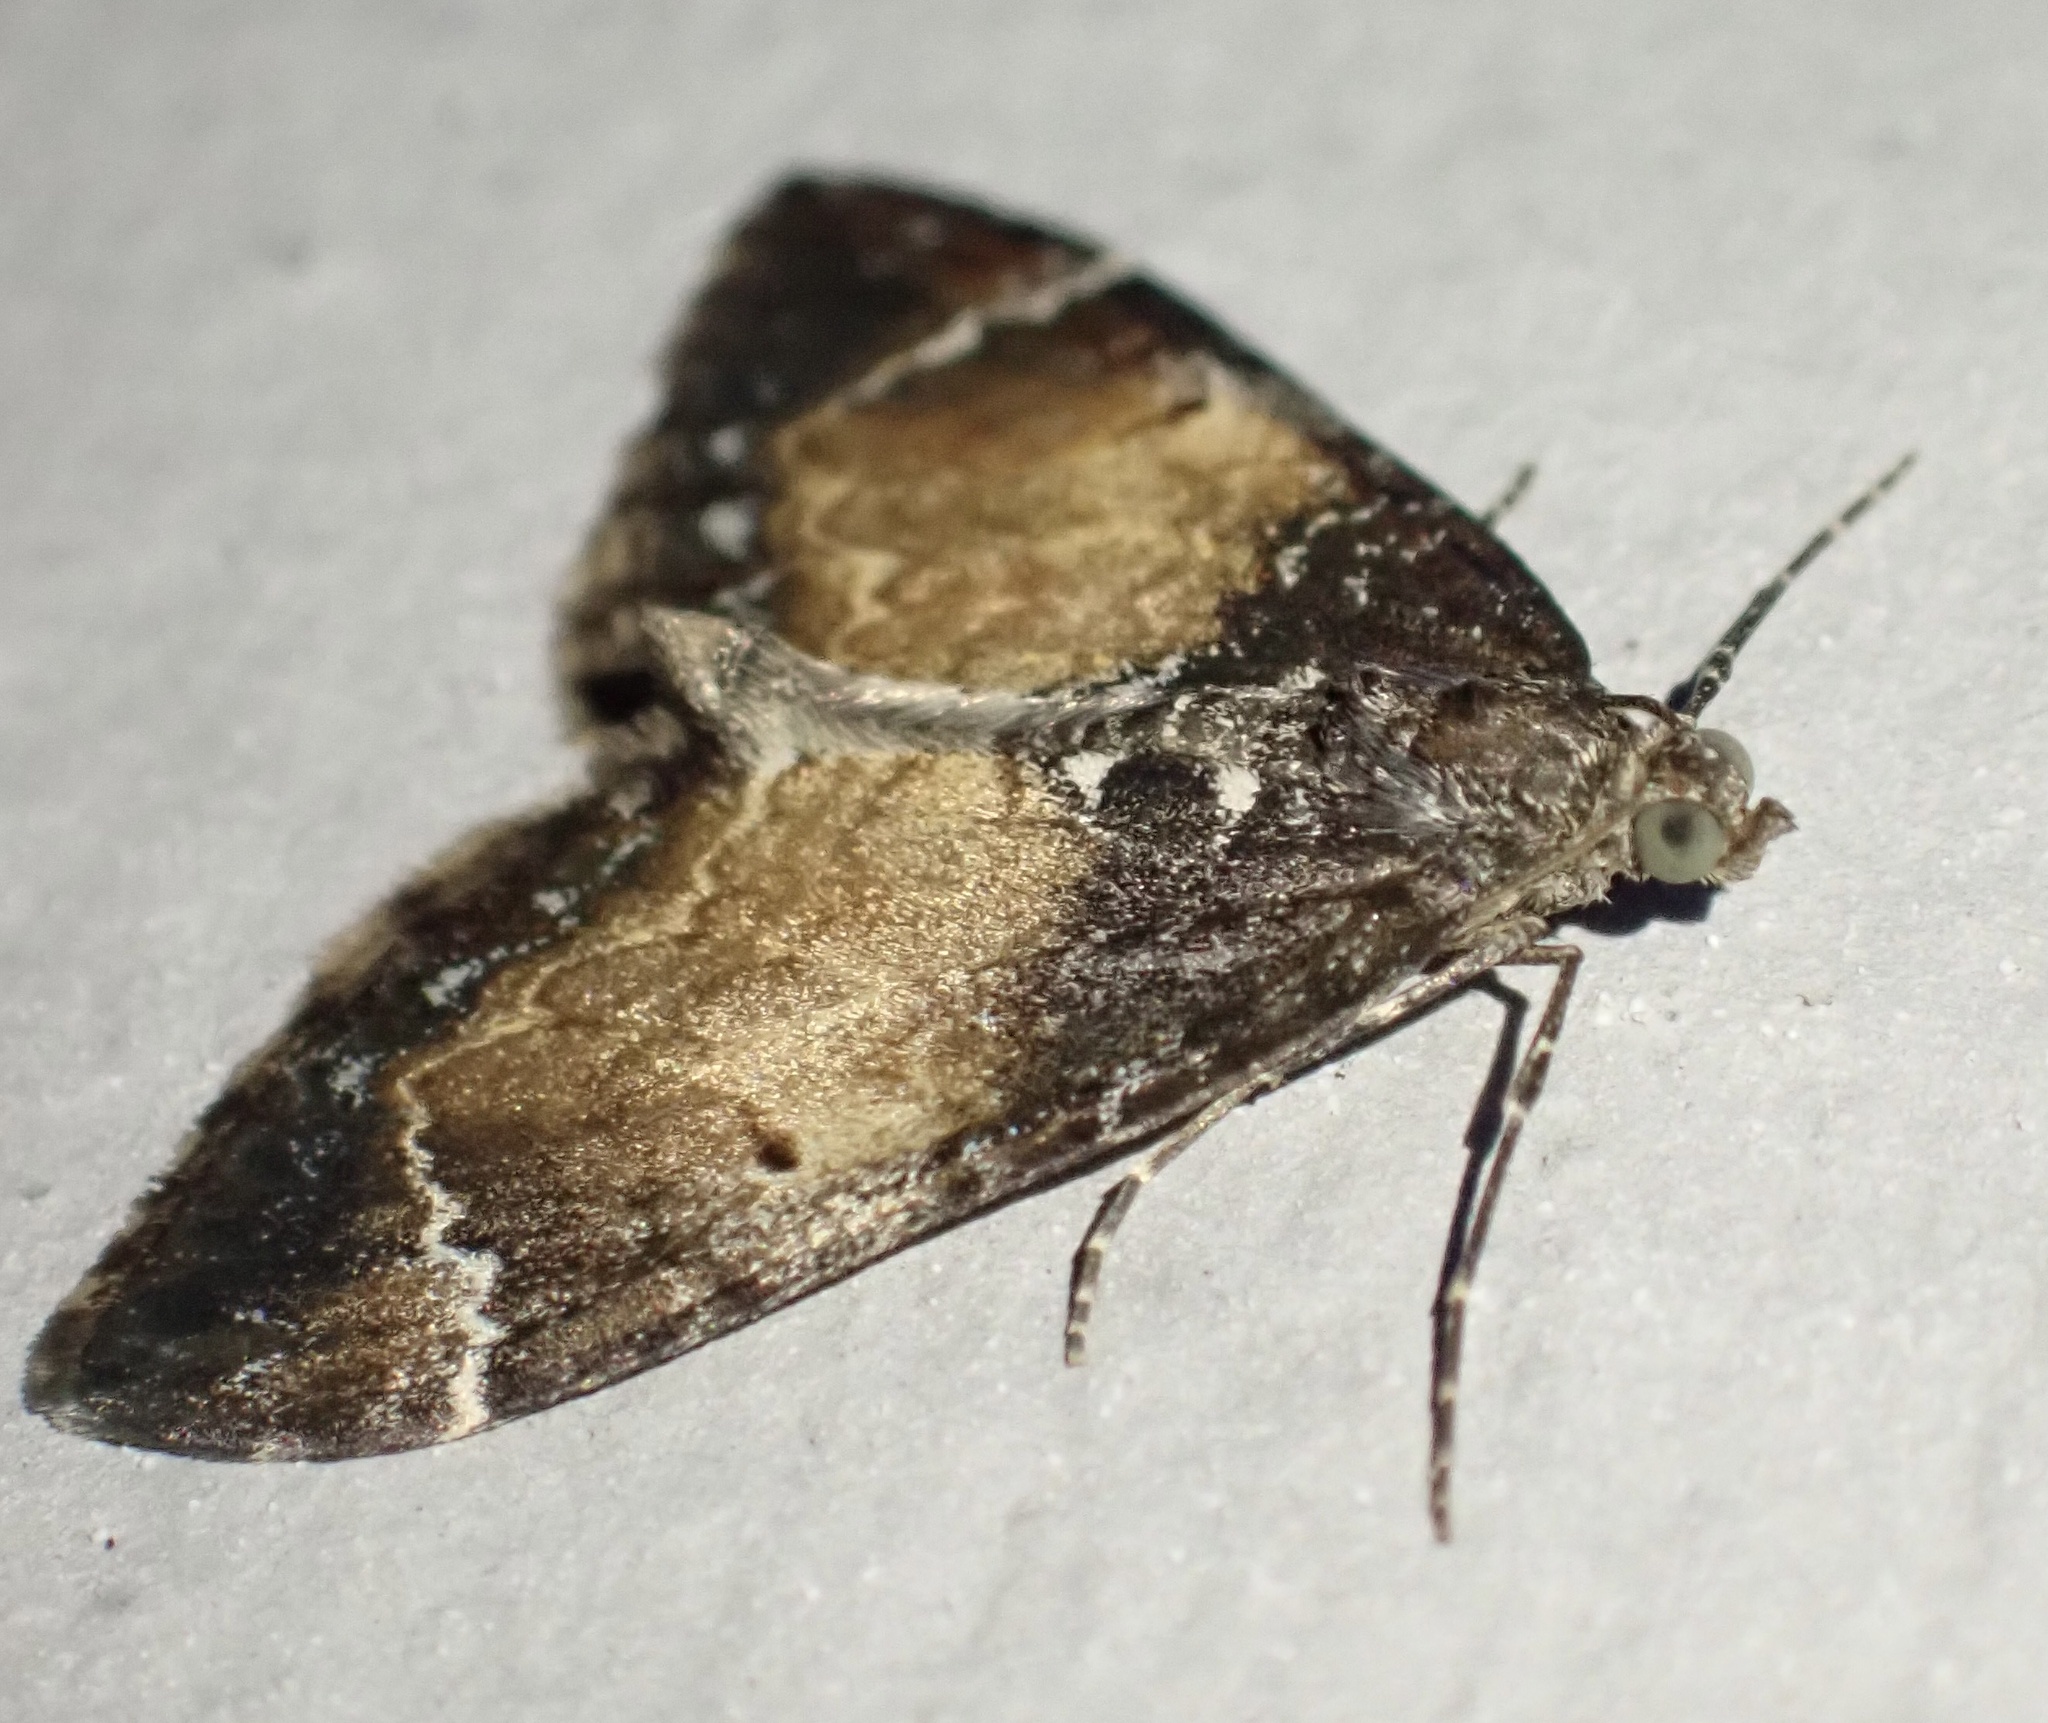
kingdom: Animalia
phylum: Arthropoda
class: Insecta
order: Lepidoptera
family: Geometridae
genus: Dysstroma
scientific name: Dysstroma truncata
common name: Common marbled carpet
